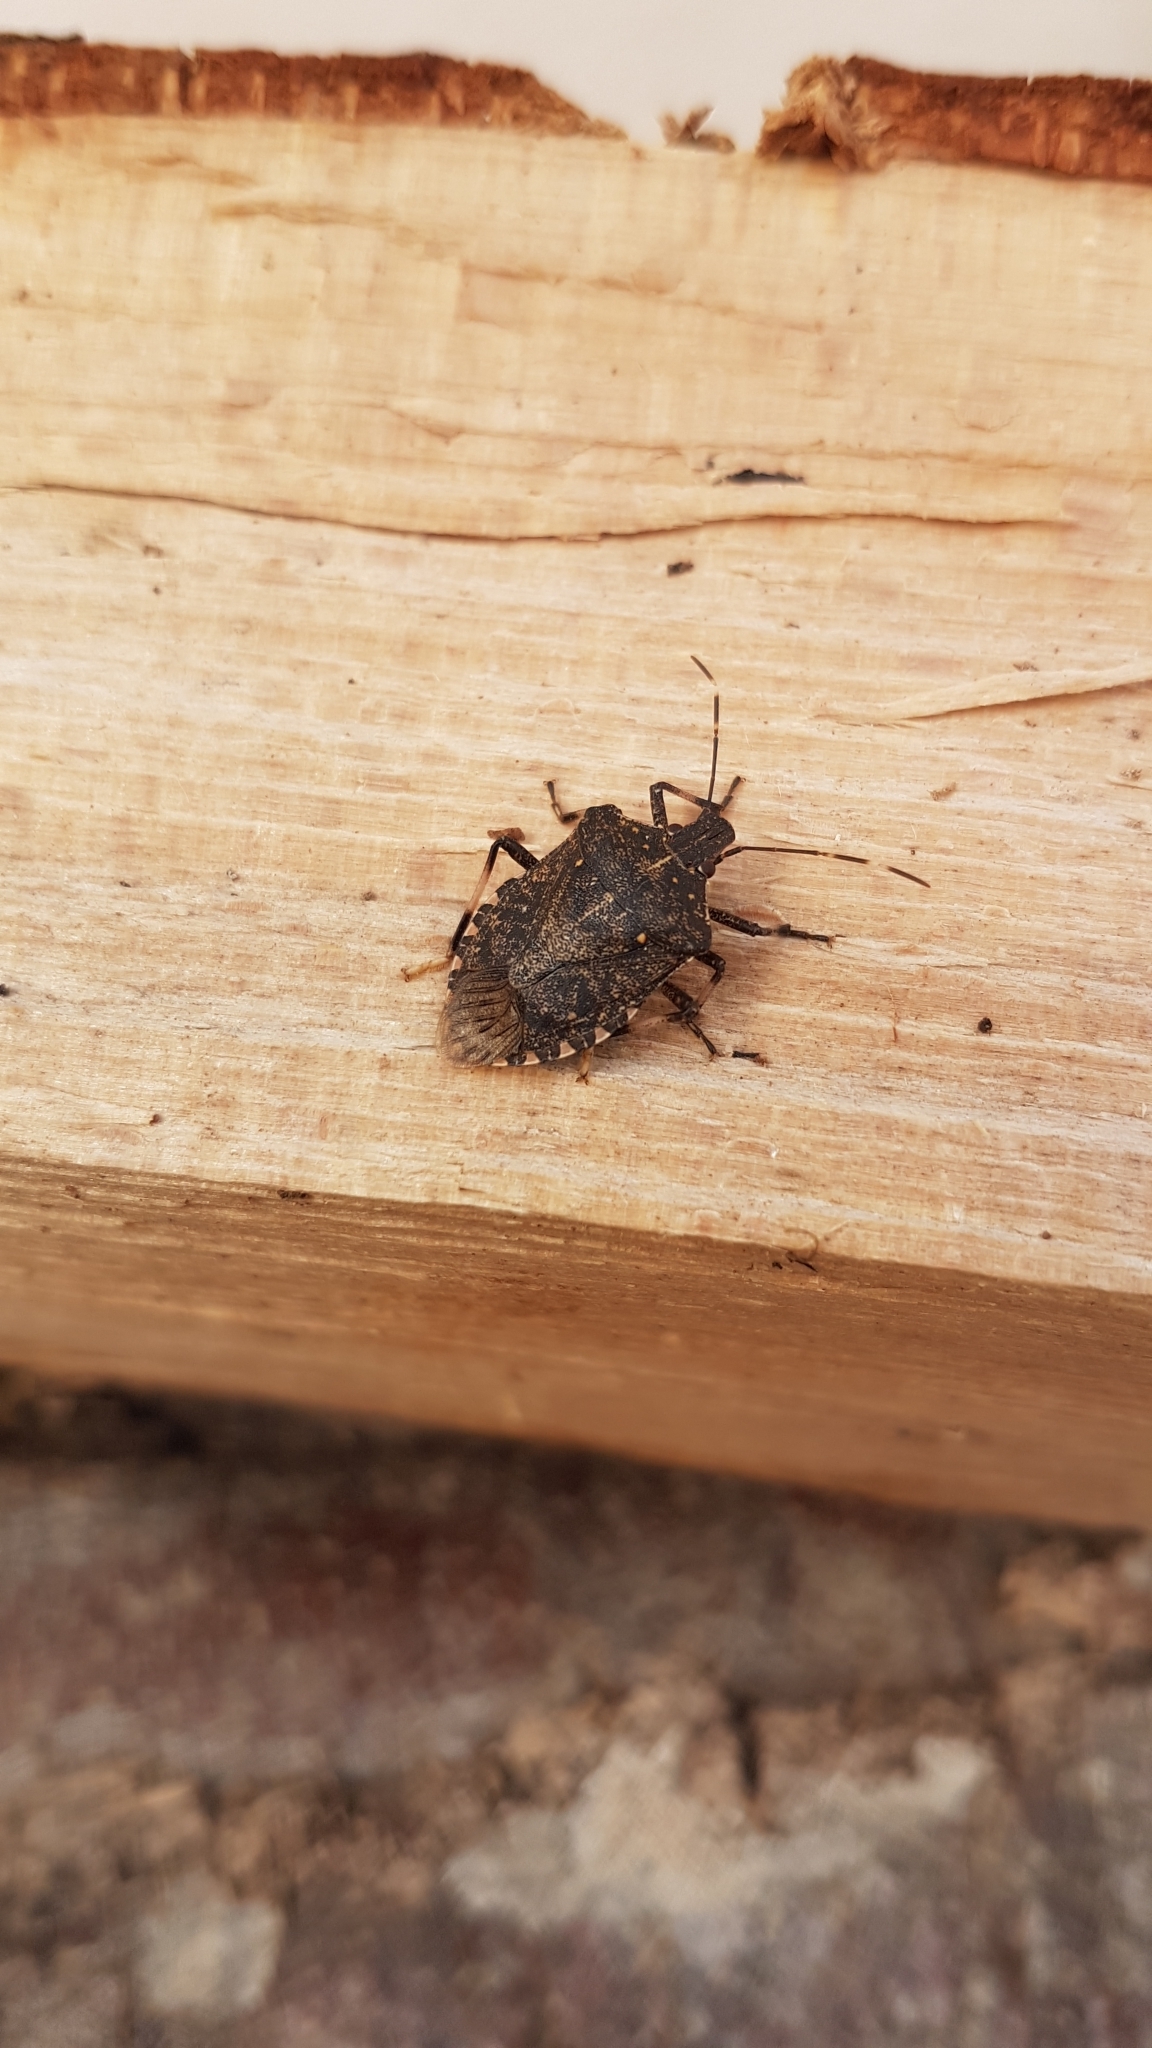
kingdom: Animalia
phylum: Arthropoda
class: Insecta
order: Hemiptera
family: Pentatomidae
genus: Halyomorpha
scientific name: Halyomorpha halys
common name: Brown marmorated stink bug
